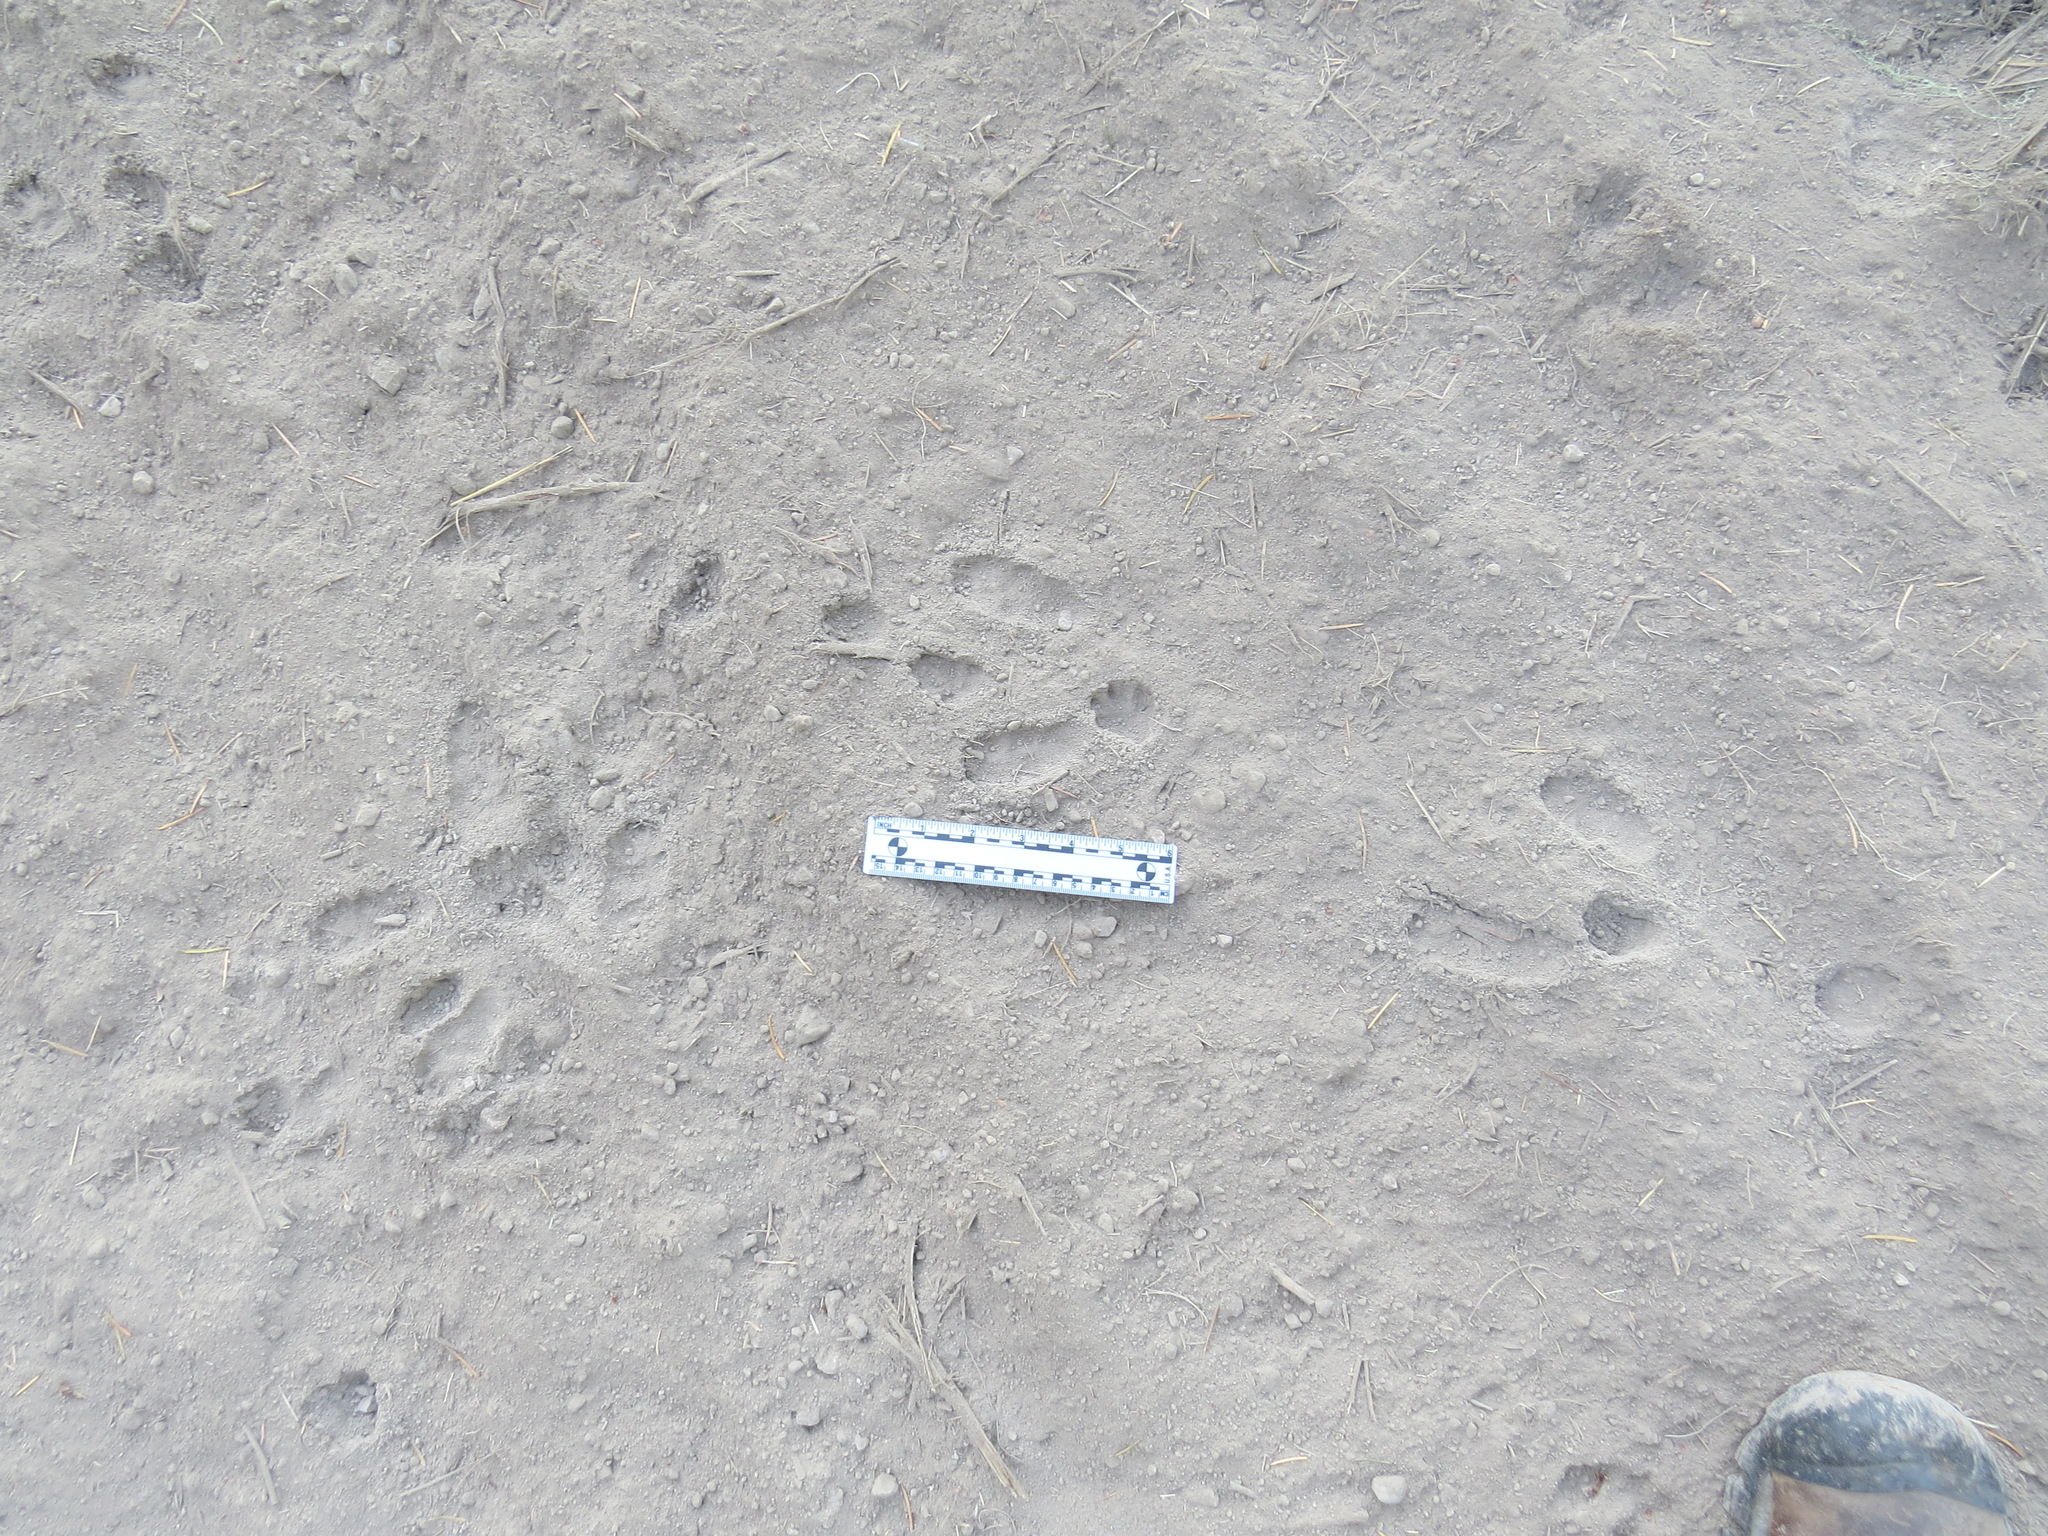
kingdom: Animalia
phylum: Chordata
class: Mammalia
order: Lagomorpha
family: Leporidae
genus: Sylvilagus
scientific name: Sylvilagus bachmani
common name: Brush rabbit
